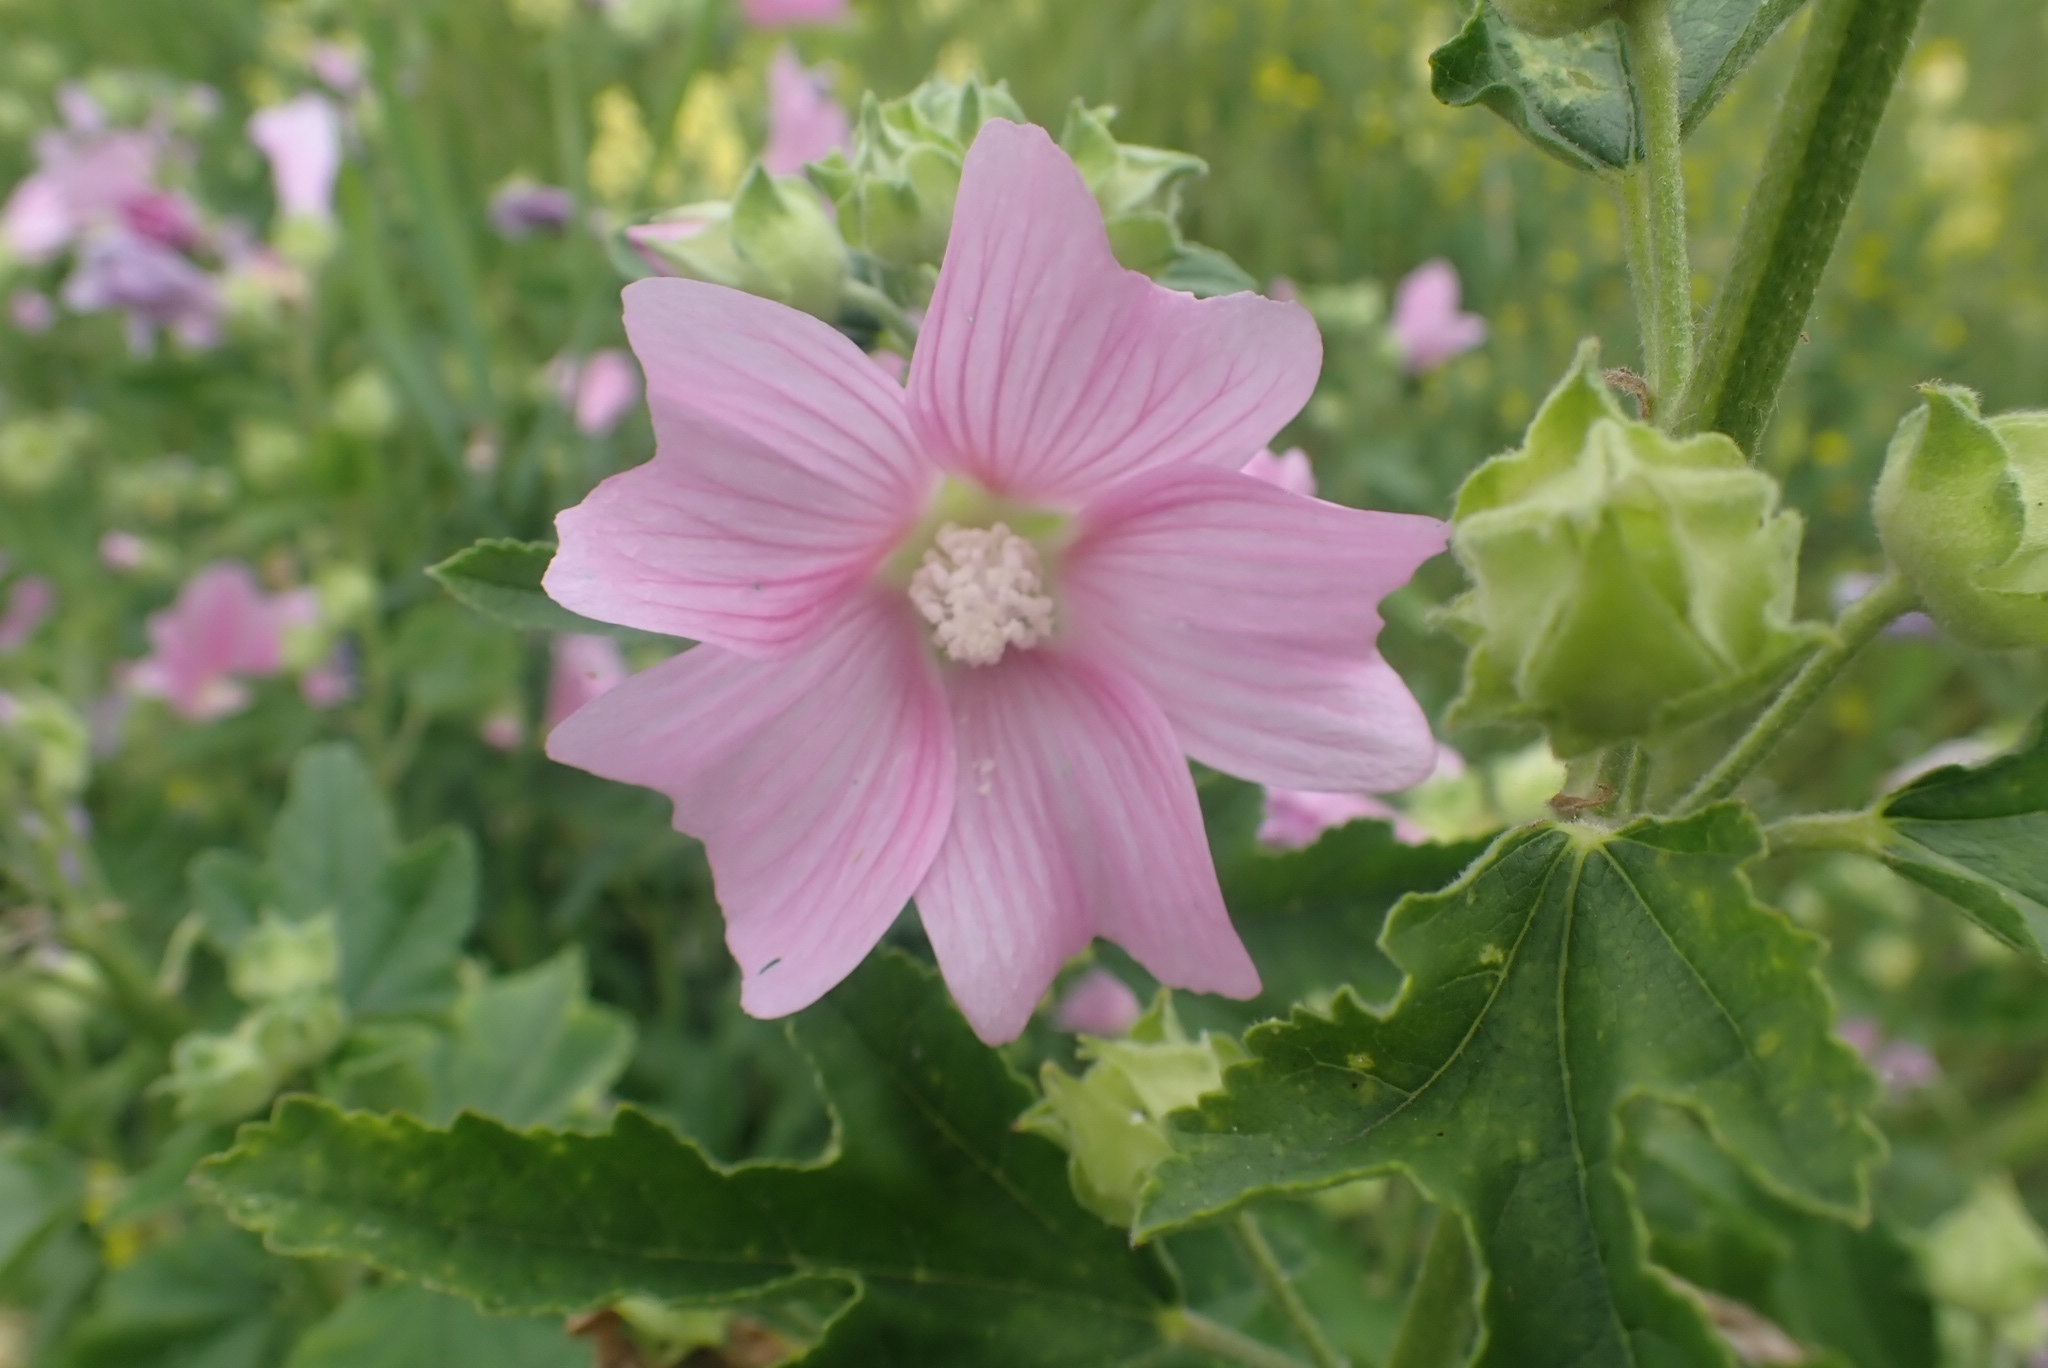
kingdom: Plantae
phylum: Tracheophyta
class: Magnoliopsida
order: Malvales
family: Malvaceae
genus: Malva
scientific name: Malva thuringiaca
